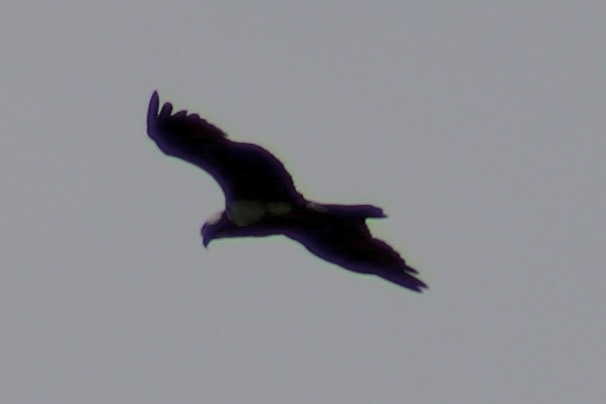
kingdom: Animalia
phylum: Chordata
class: Aves
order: Accipitriformes
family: Pandionidae
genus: Pandion
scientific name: Pandion haliaetus
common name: Osprey
